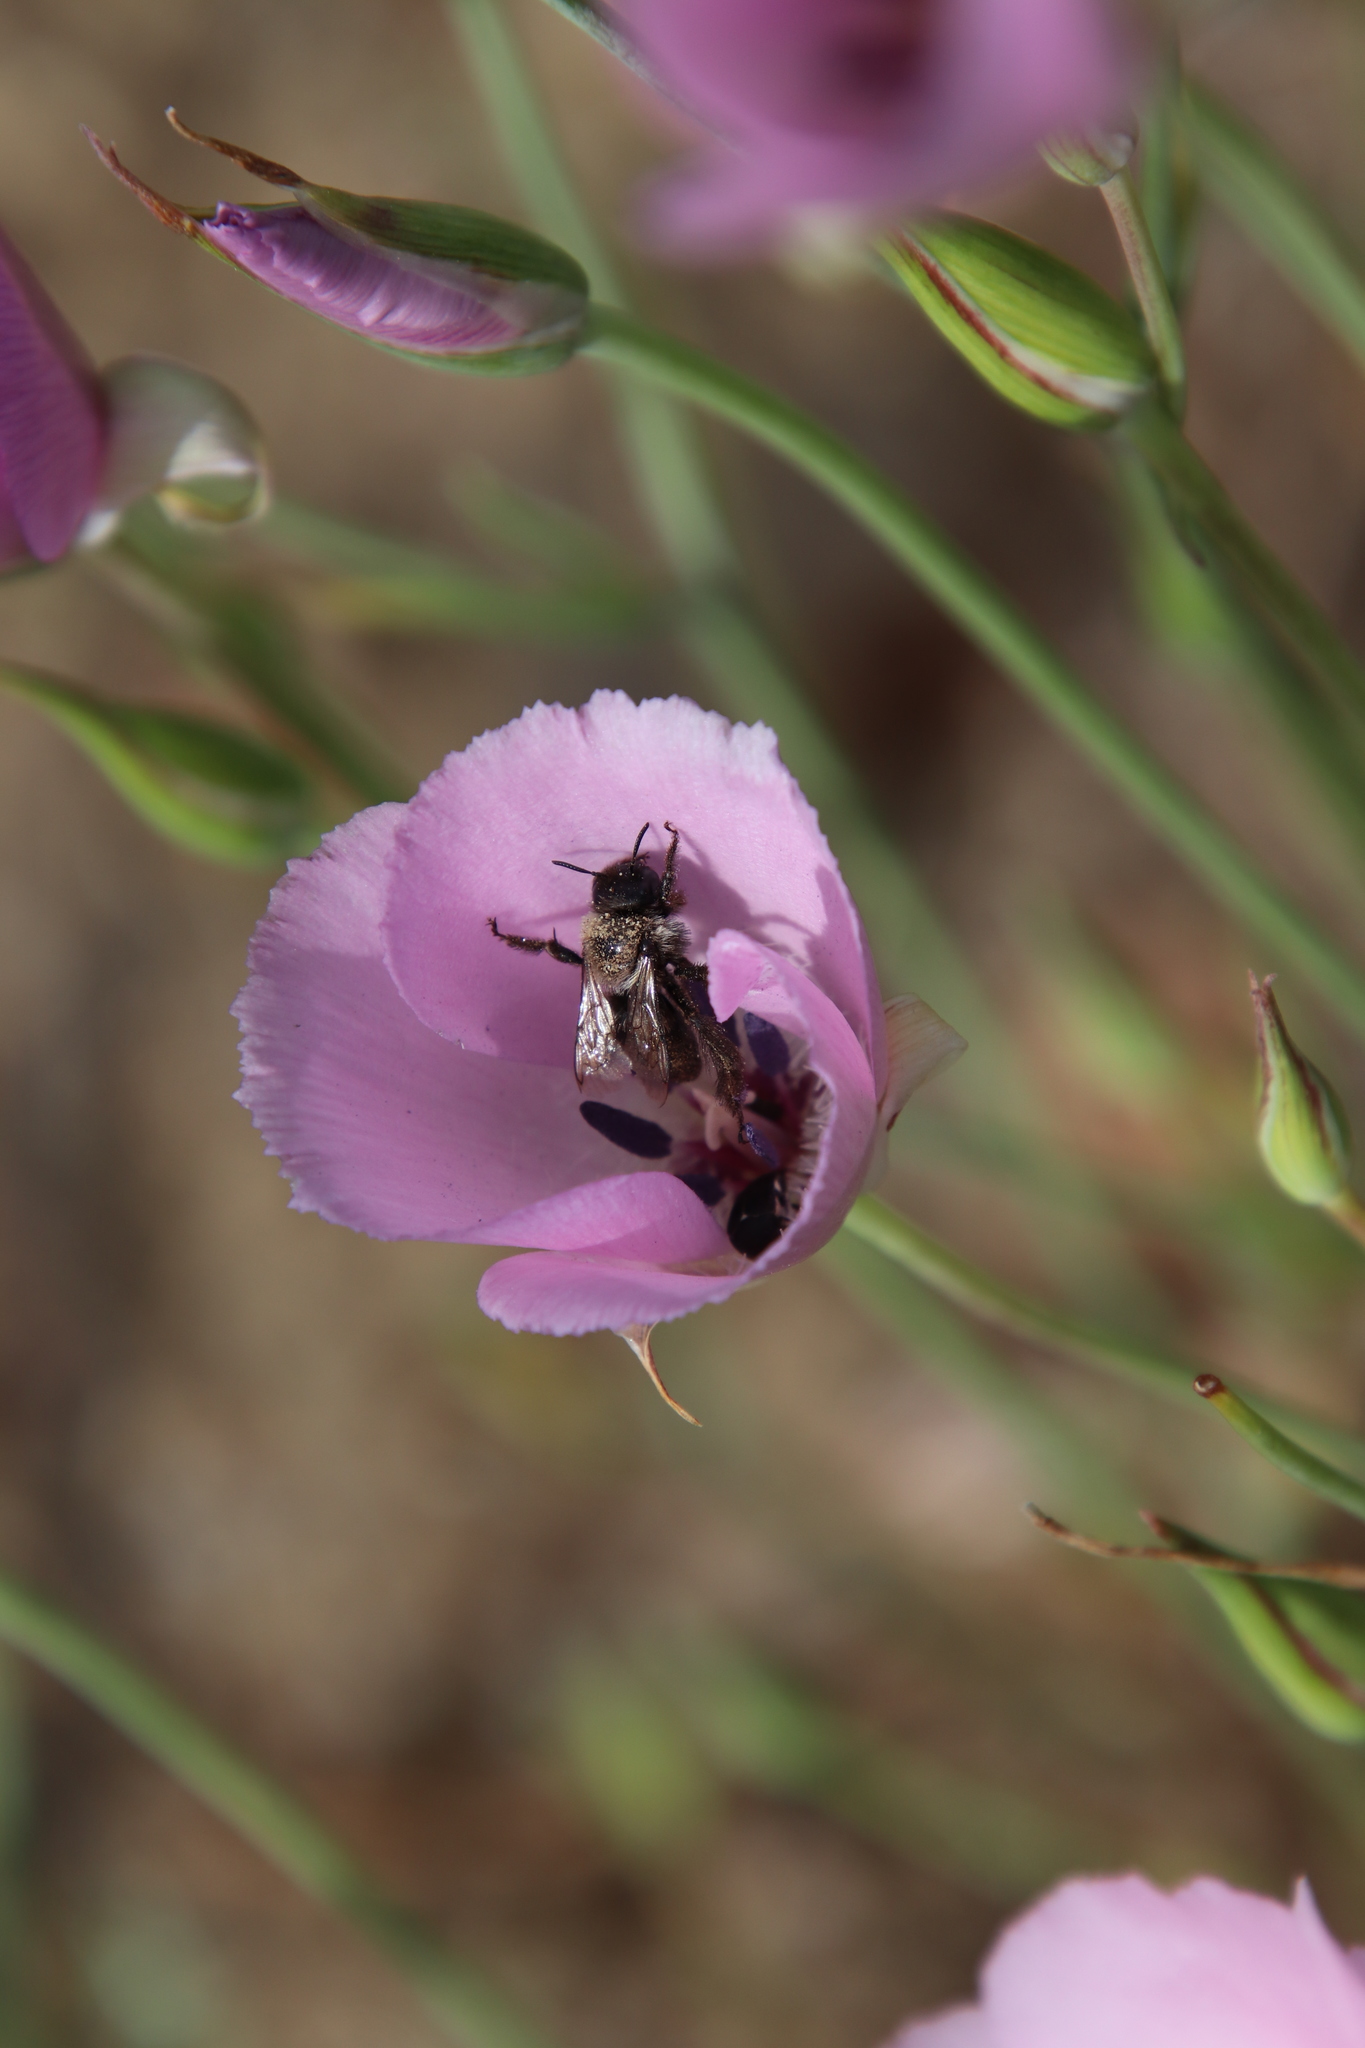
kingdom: Animalia
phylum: Arthropoda
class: Insecta
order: Hymenoptera
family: Apidae
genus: Diadasia
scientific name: Diadasia nigrifrons
